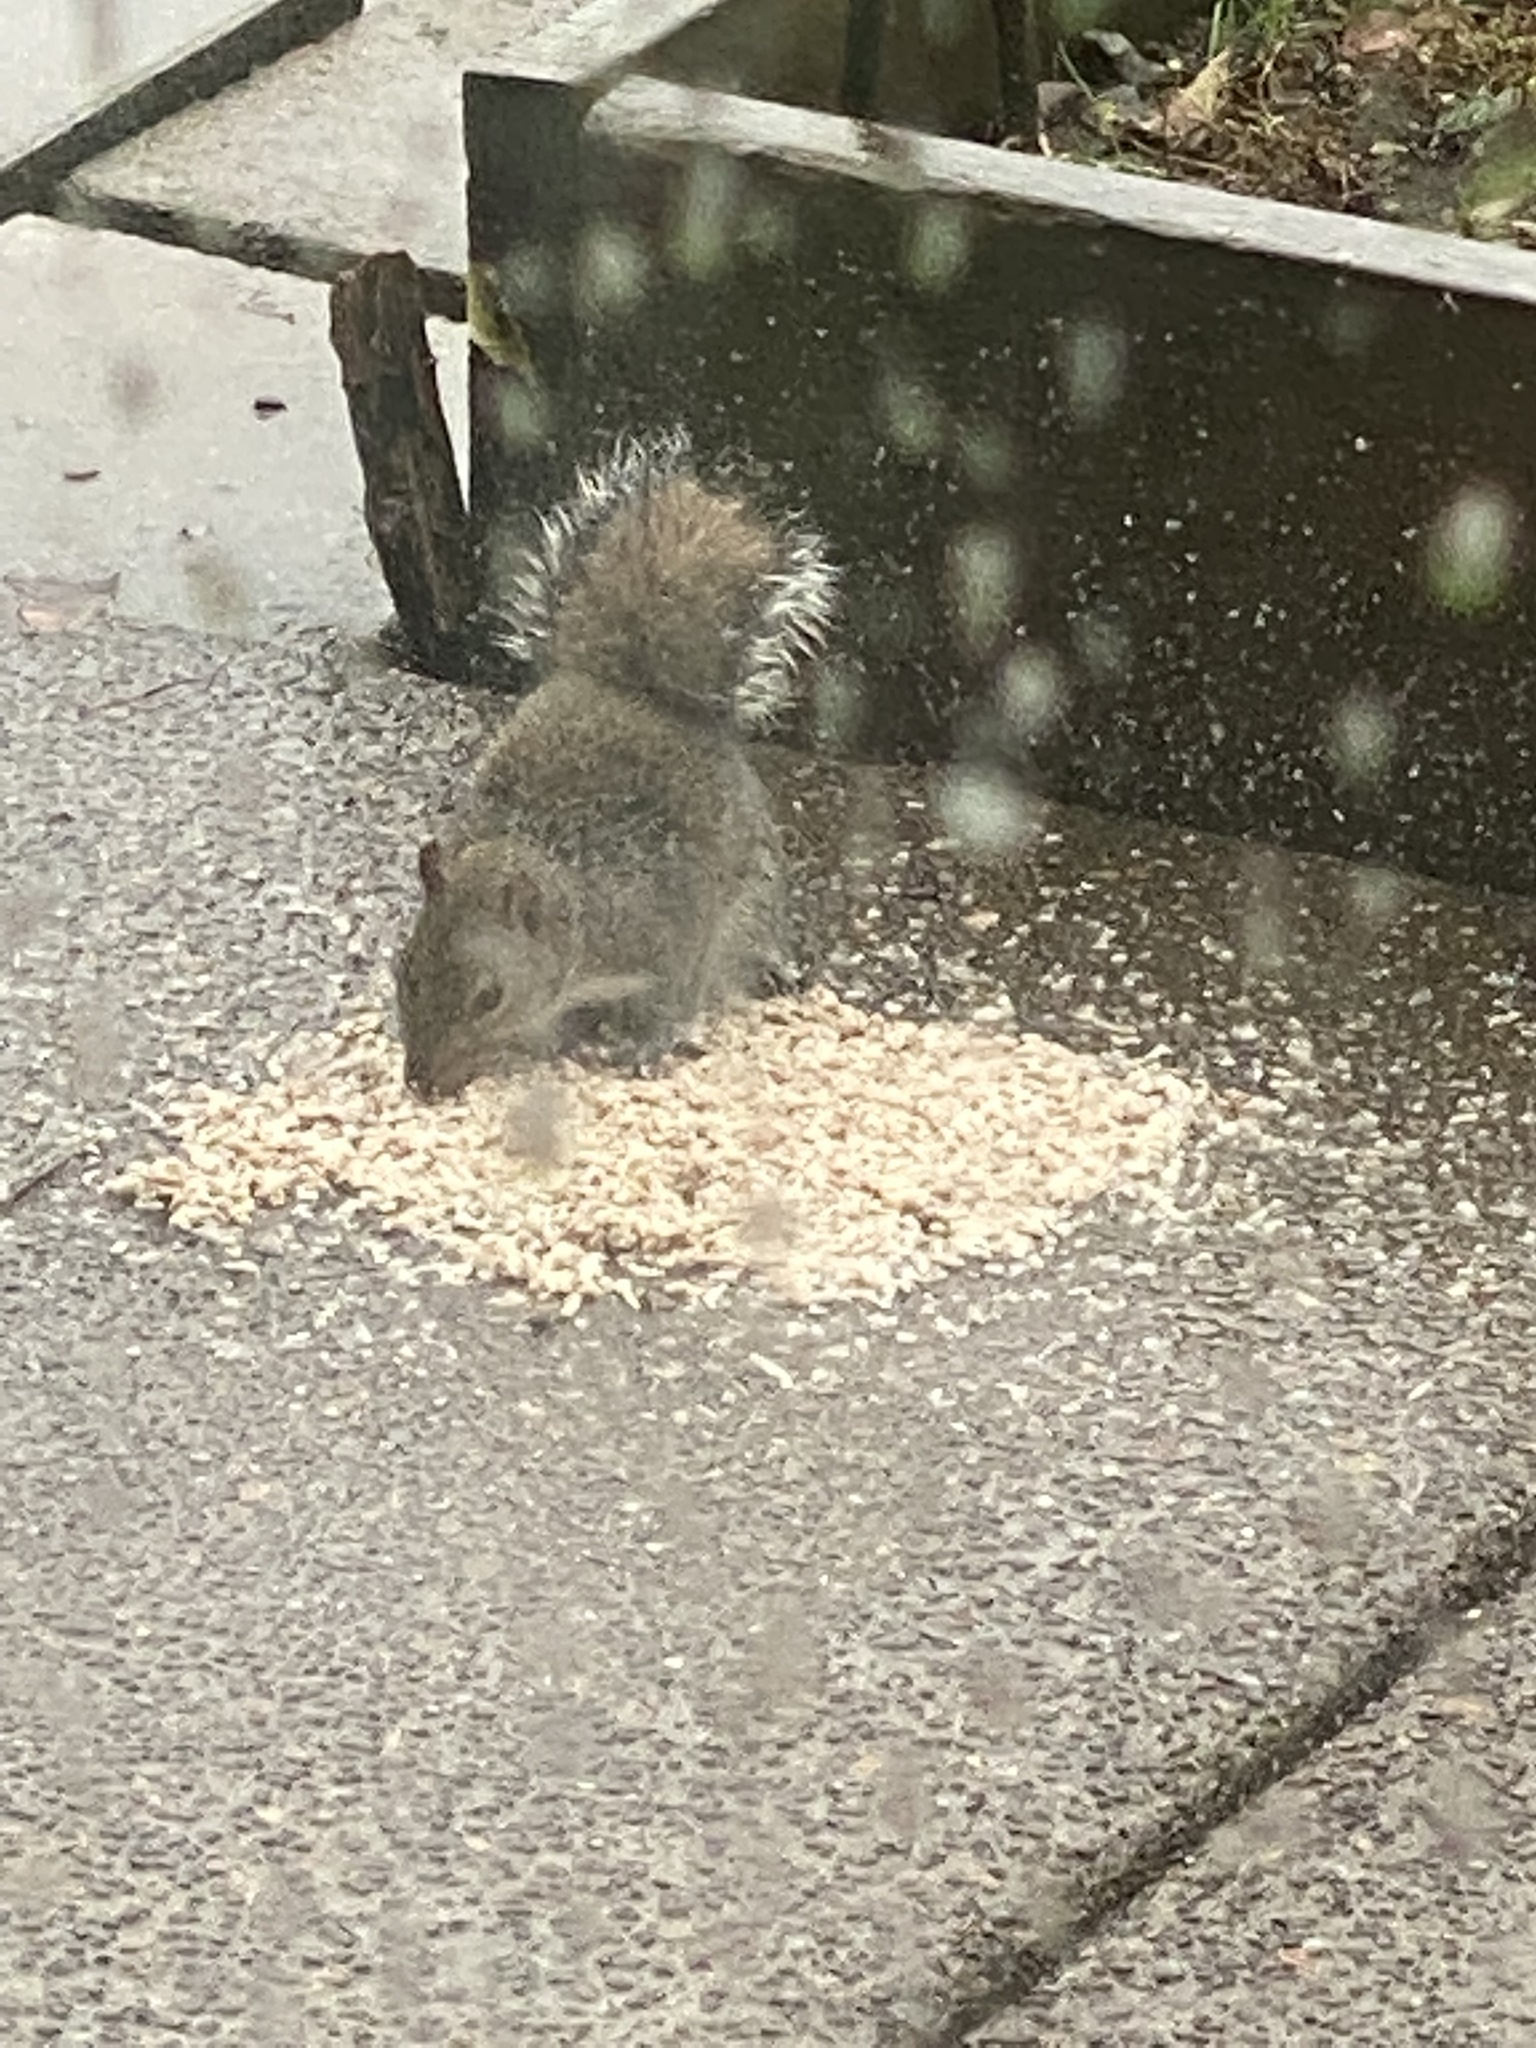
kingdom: Animalia
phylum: Chordata
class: Mammalia
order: Rodentia
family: Sciuridae
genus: Sciurus
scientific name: Sciurus carolinensis
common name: Eastern gray squirrel
